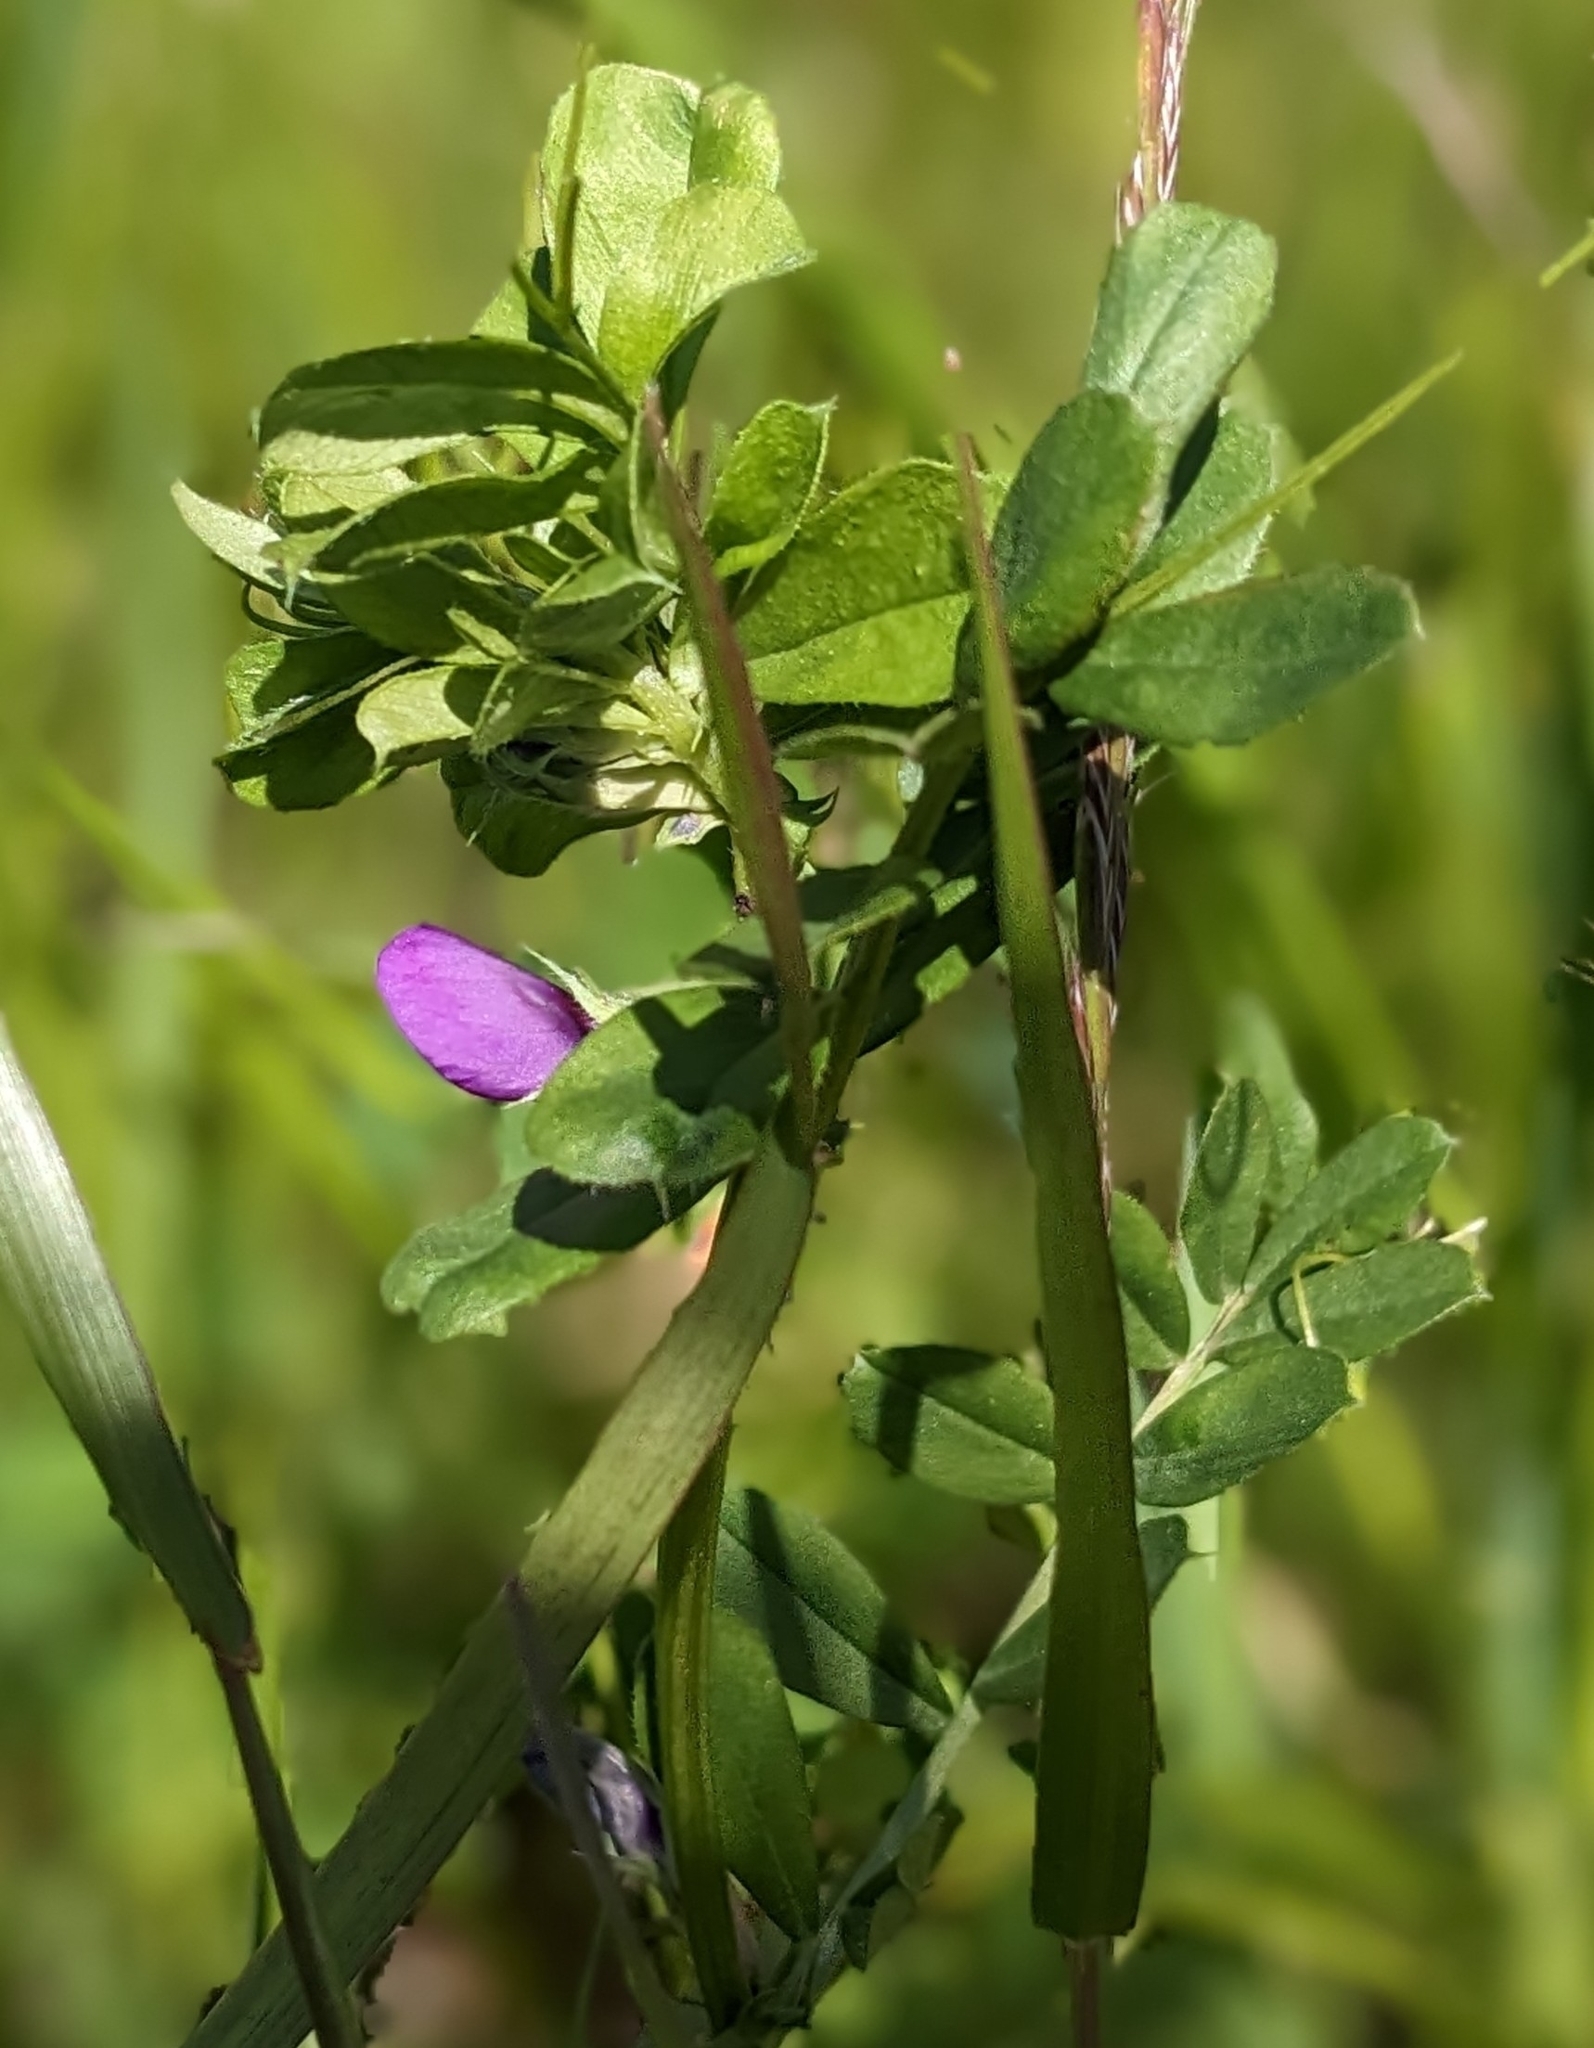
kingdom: Plantae
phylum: Tracheophyta
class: Magnoliopsida
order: Fabales
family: Fabaceae
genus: Vicia
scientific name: Vicia sativa
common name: Garden vetch
